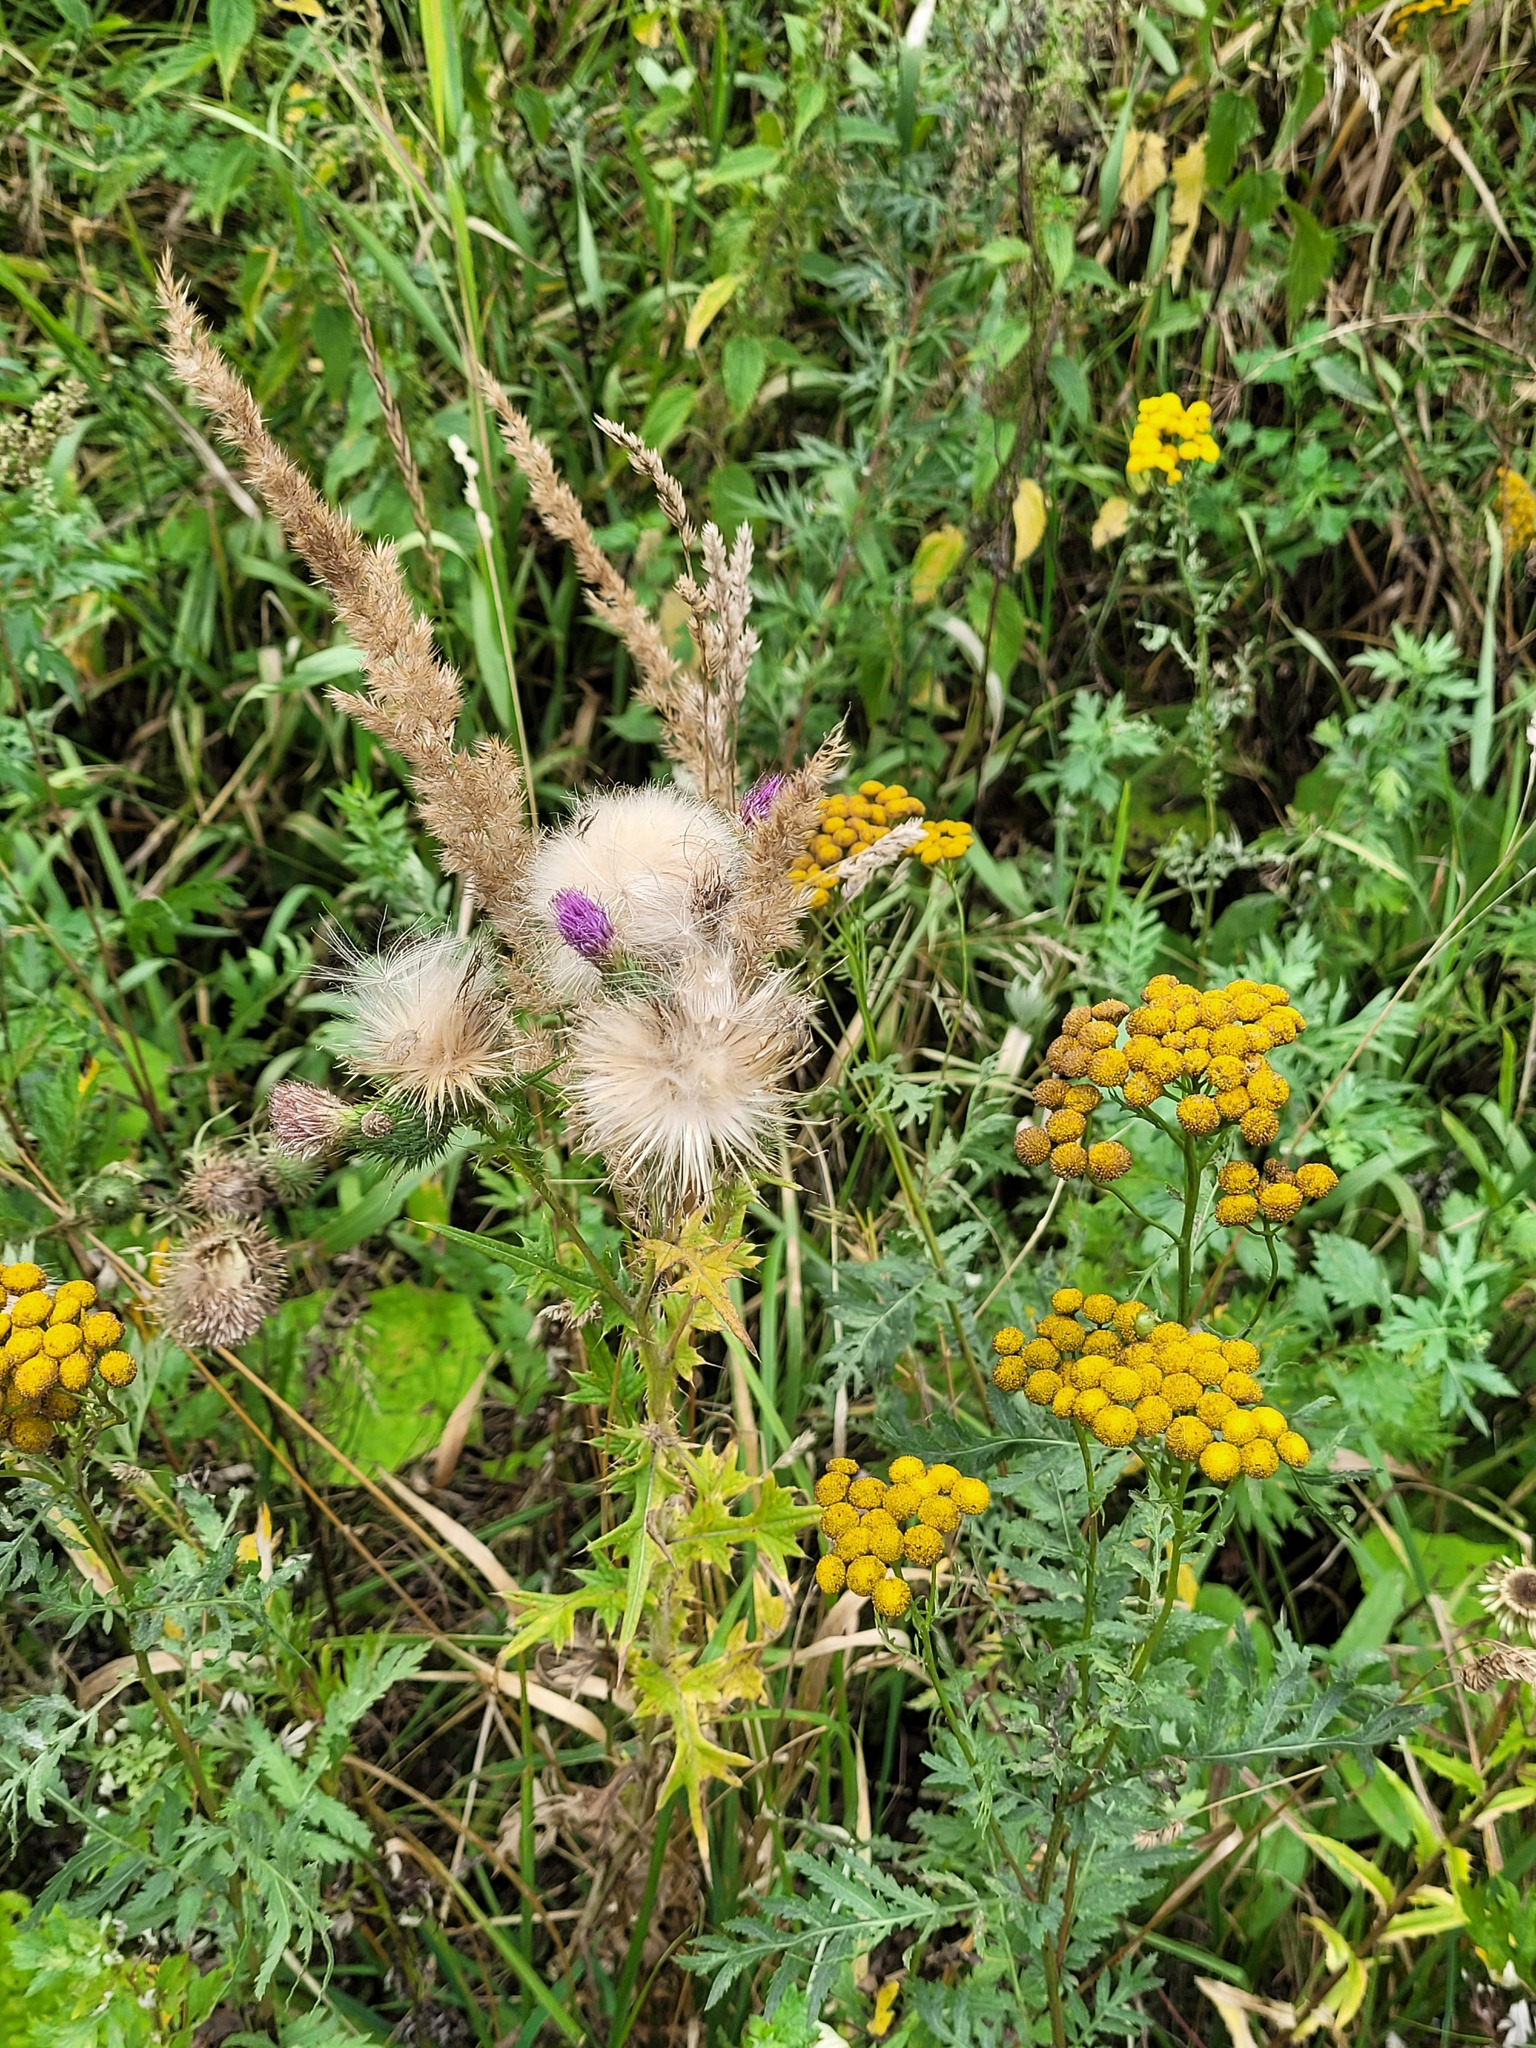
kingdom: Plantae
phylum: Tracheophyta
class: Magnoliopsida
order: Asterales
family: Asteraceae
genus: Cirsium
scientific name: Cirsium vulgare
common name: Bull thistle
